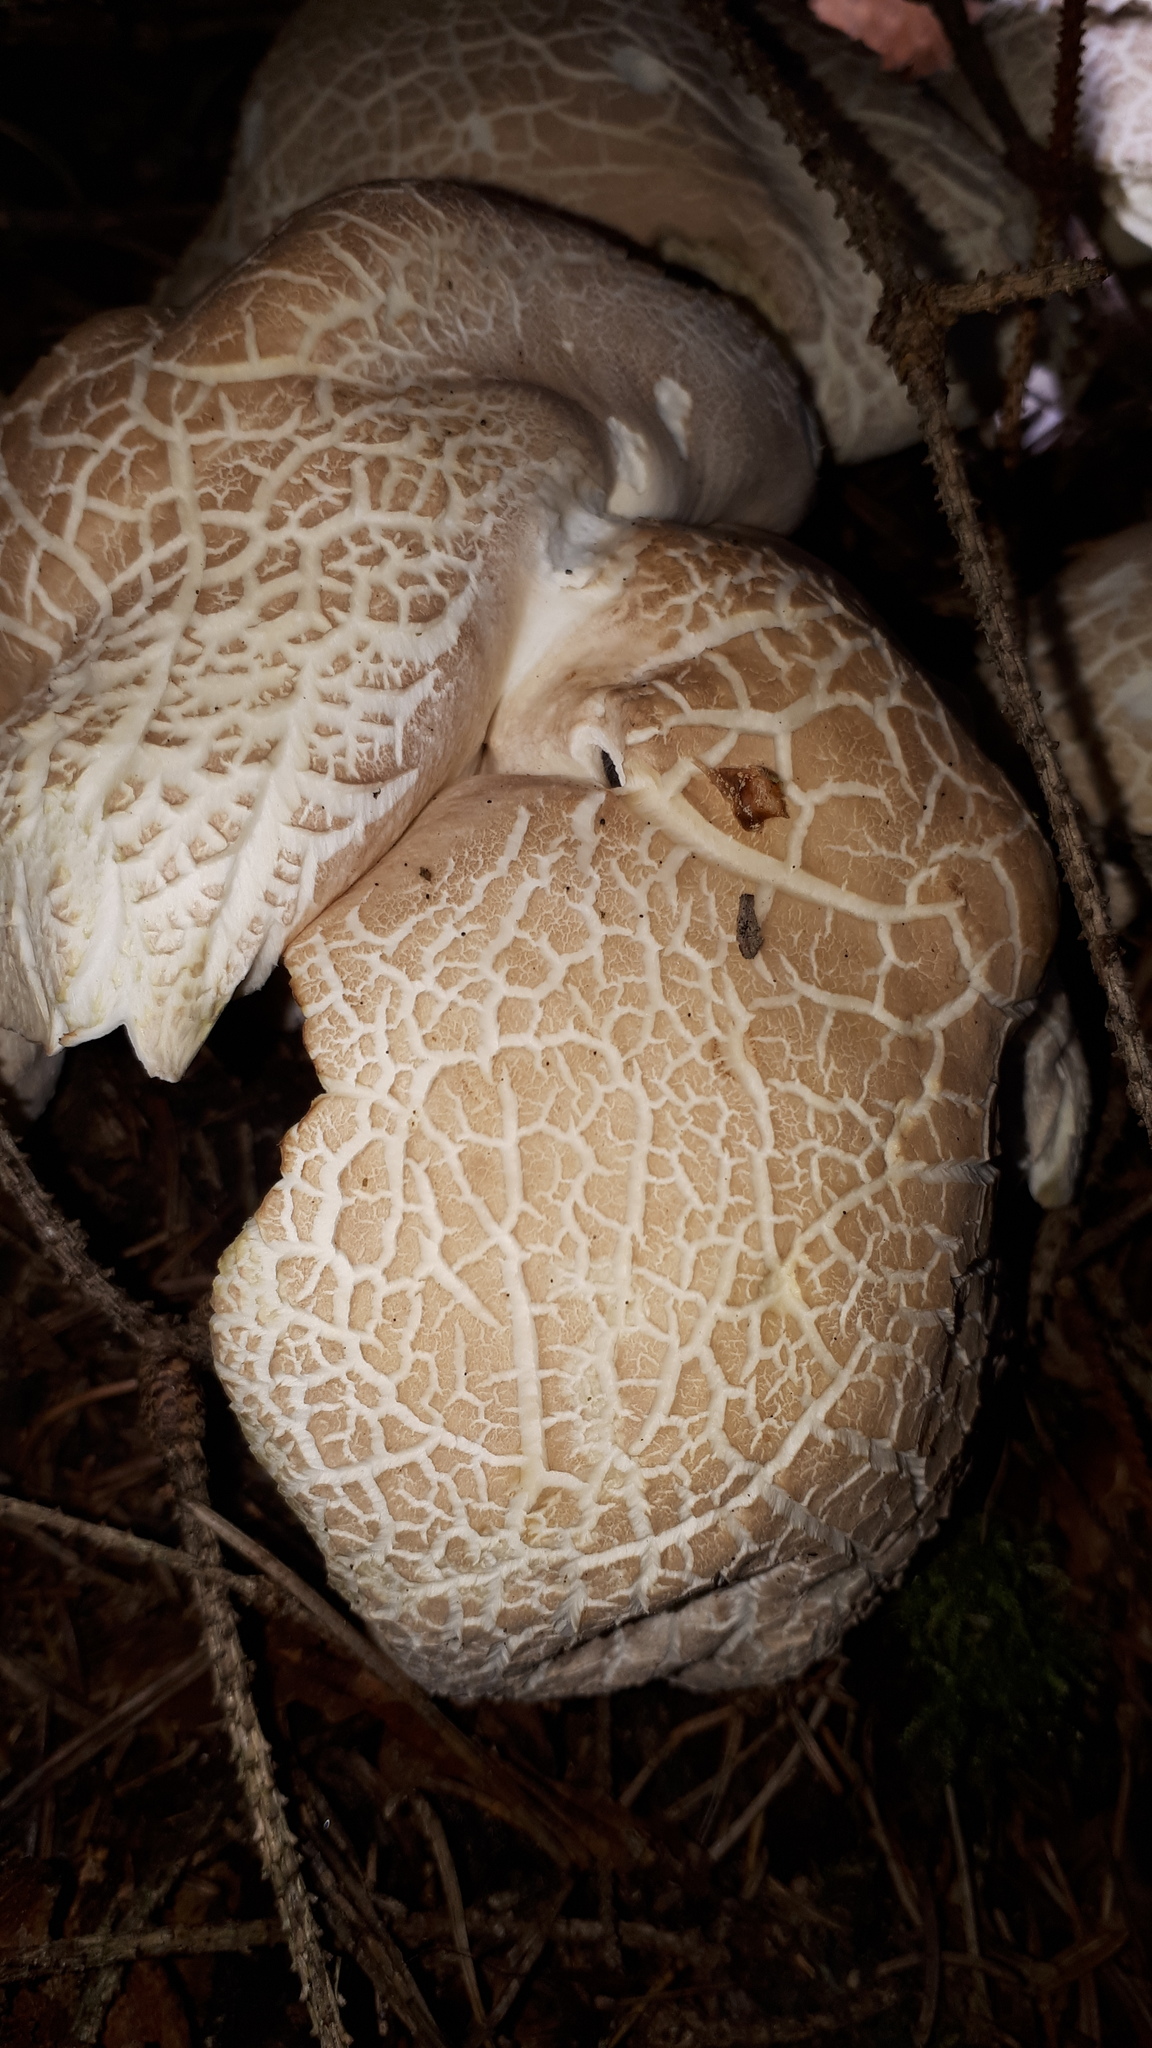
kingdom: Fungi
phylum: Basidiomycota
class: Agaricomycetes
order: Russulales
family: Albatrellaceae
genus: Albatrellus
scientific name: Albatrellus ovinus
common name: Forest lamb
